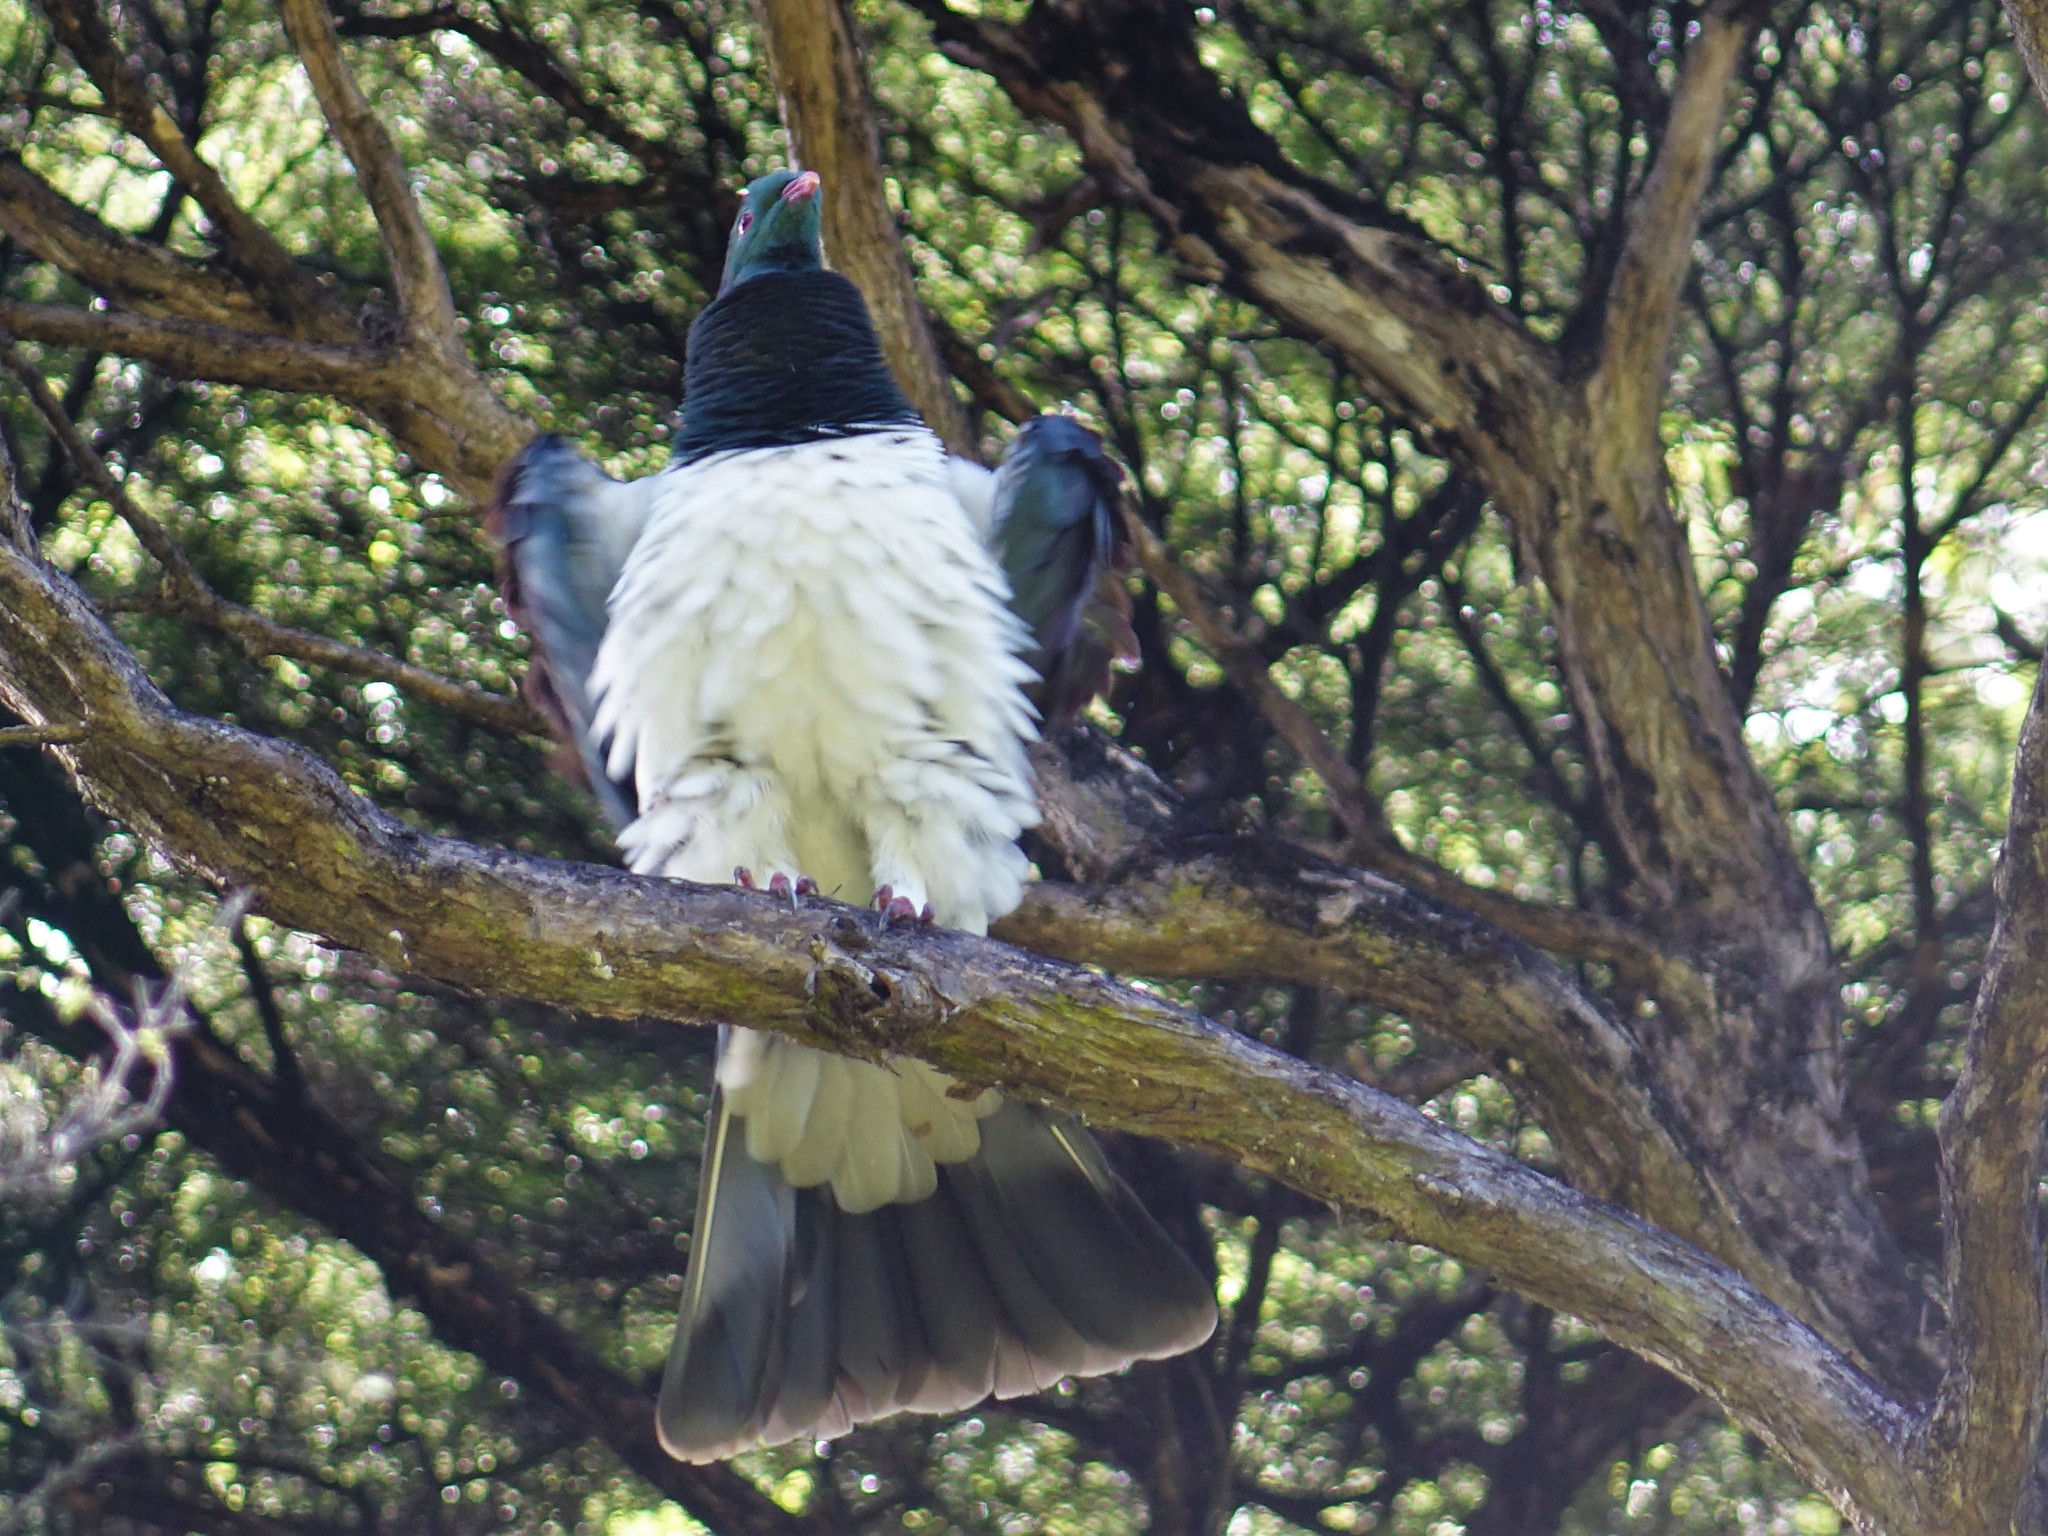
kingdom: Animalia
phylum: Chordata
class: Aves
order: Columbiformes
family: Columbidae
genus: Hemiphaga
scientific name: Hemiphaga novaeseelandiae
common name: New zealand pigeon
